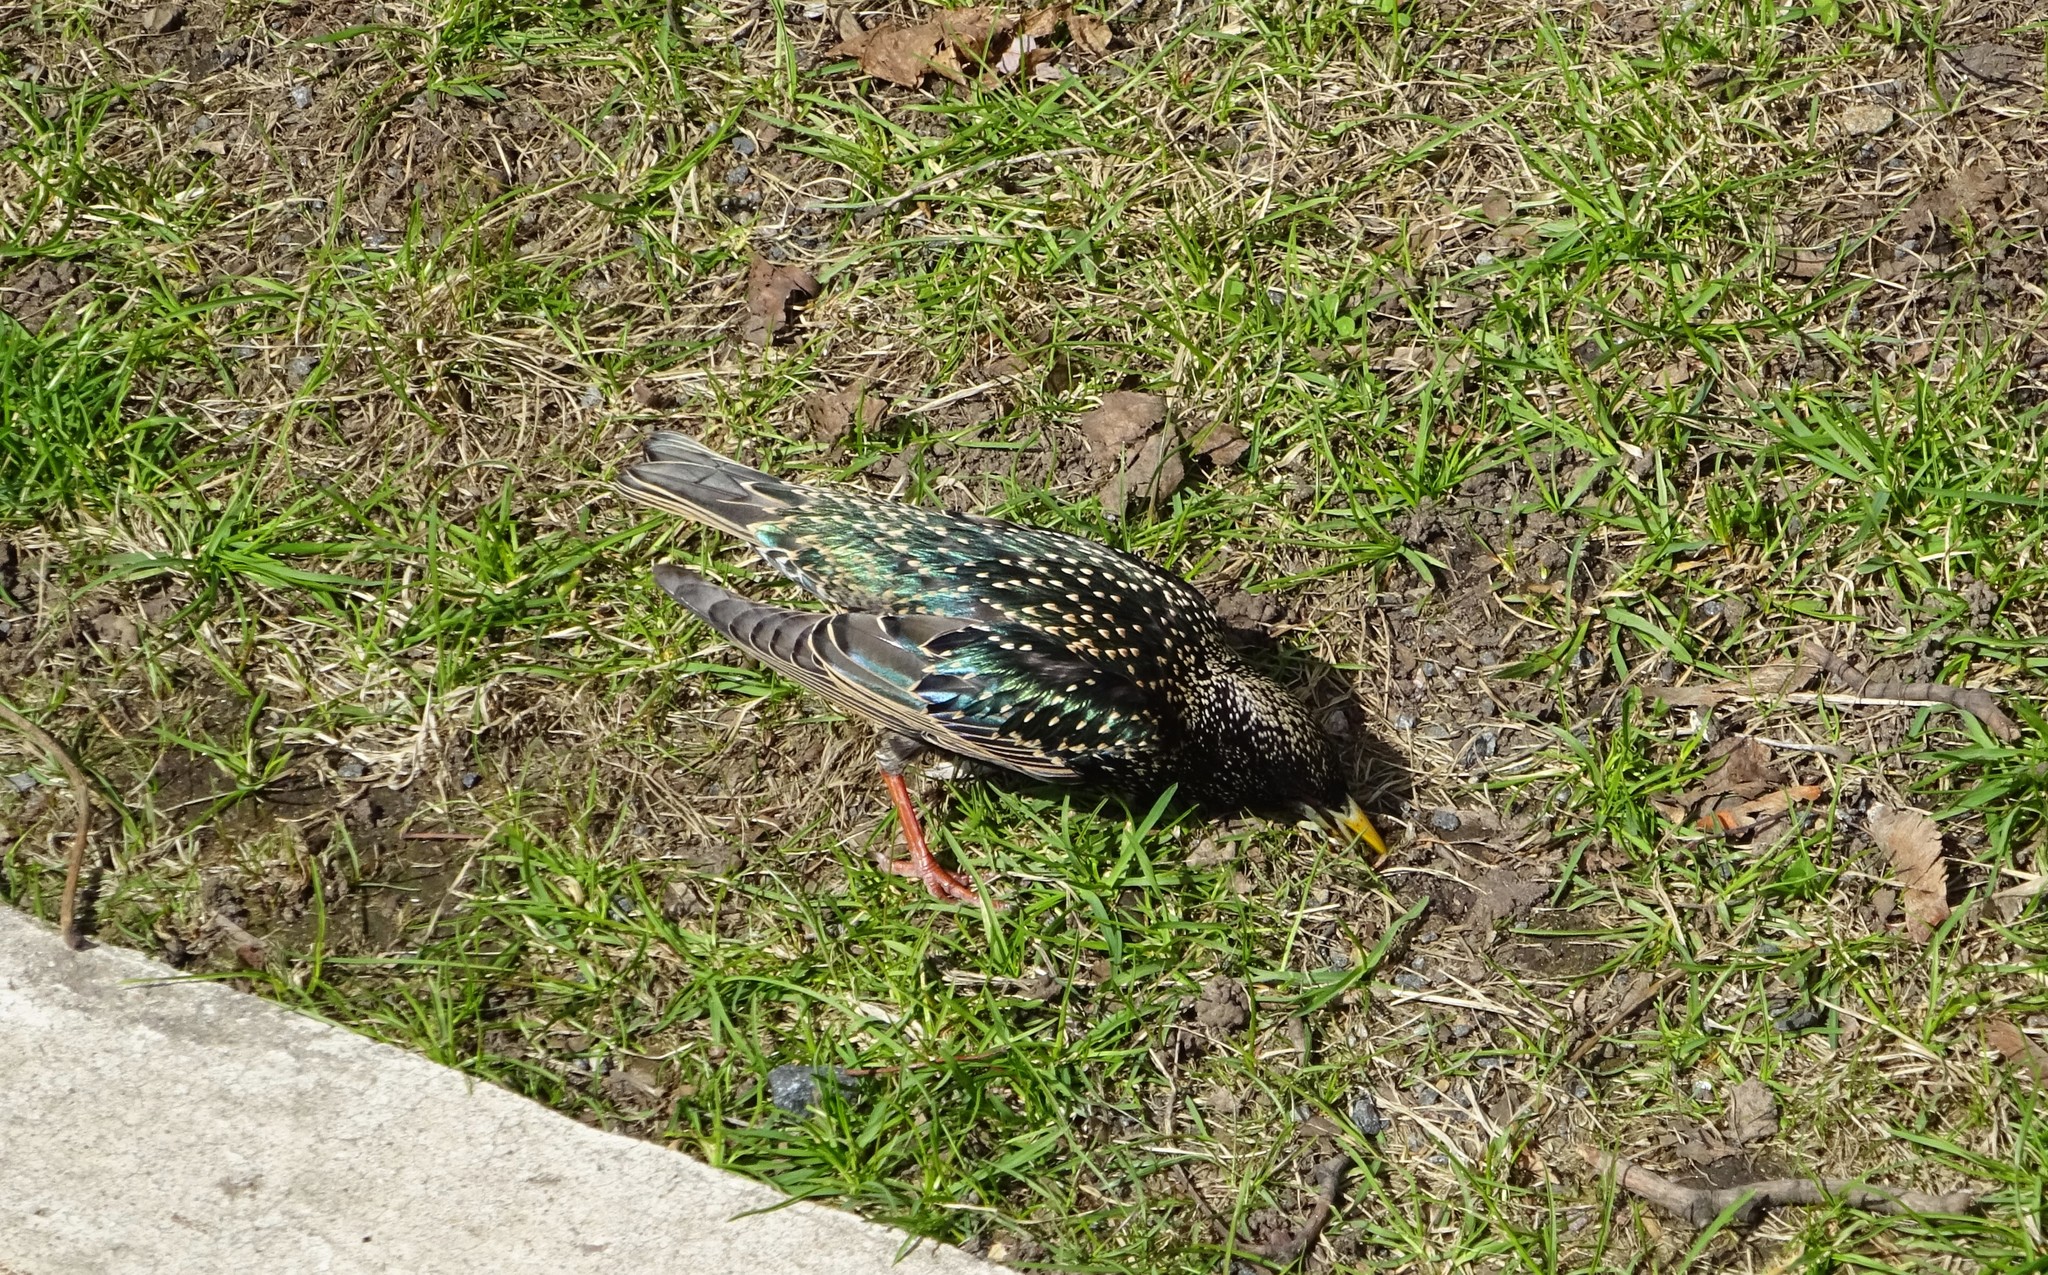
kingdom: Animalia
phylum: Chordata
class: Aves
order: Passeriformes
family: Sturnidae
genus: Sturnus
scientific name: Sturnus vulgaris
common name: Common starling
